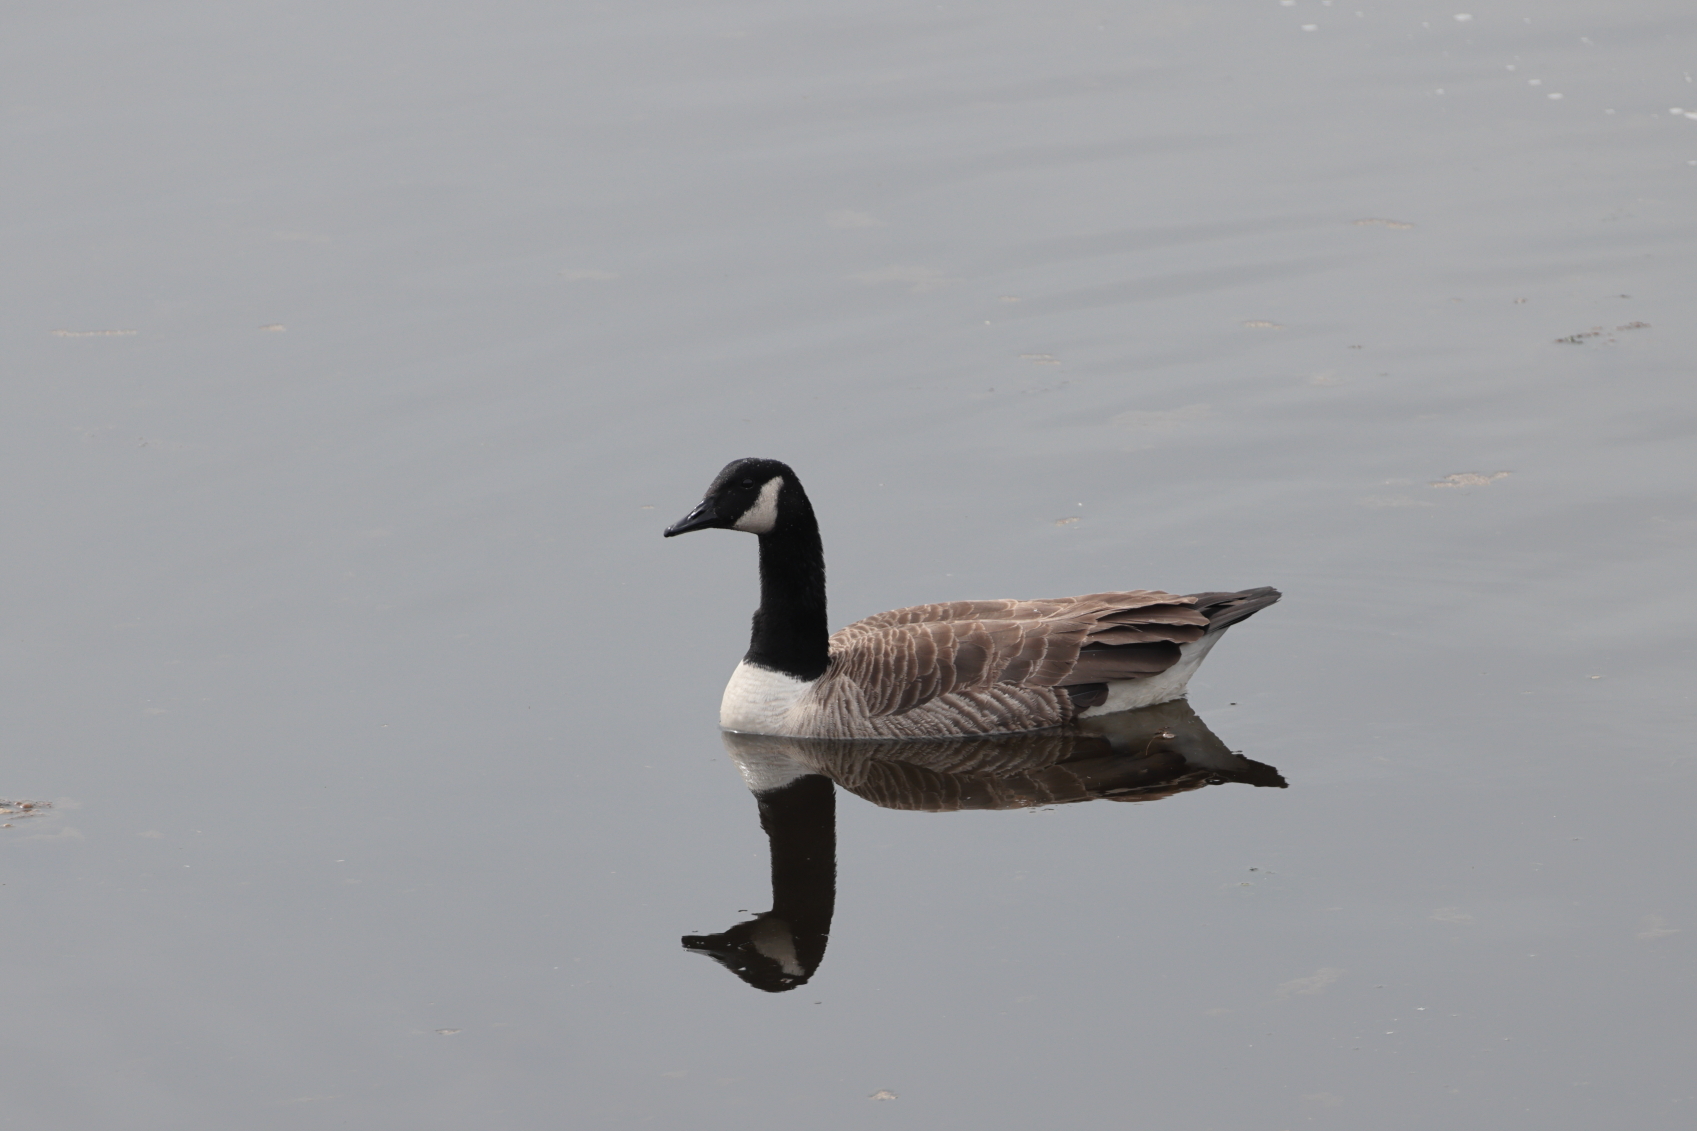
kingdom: Animalia
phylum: Chordata
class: Aves
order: Anseriformes
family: Anatidae
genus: Branta
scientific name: Branta canadensis
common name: Canada goose
